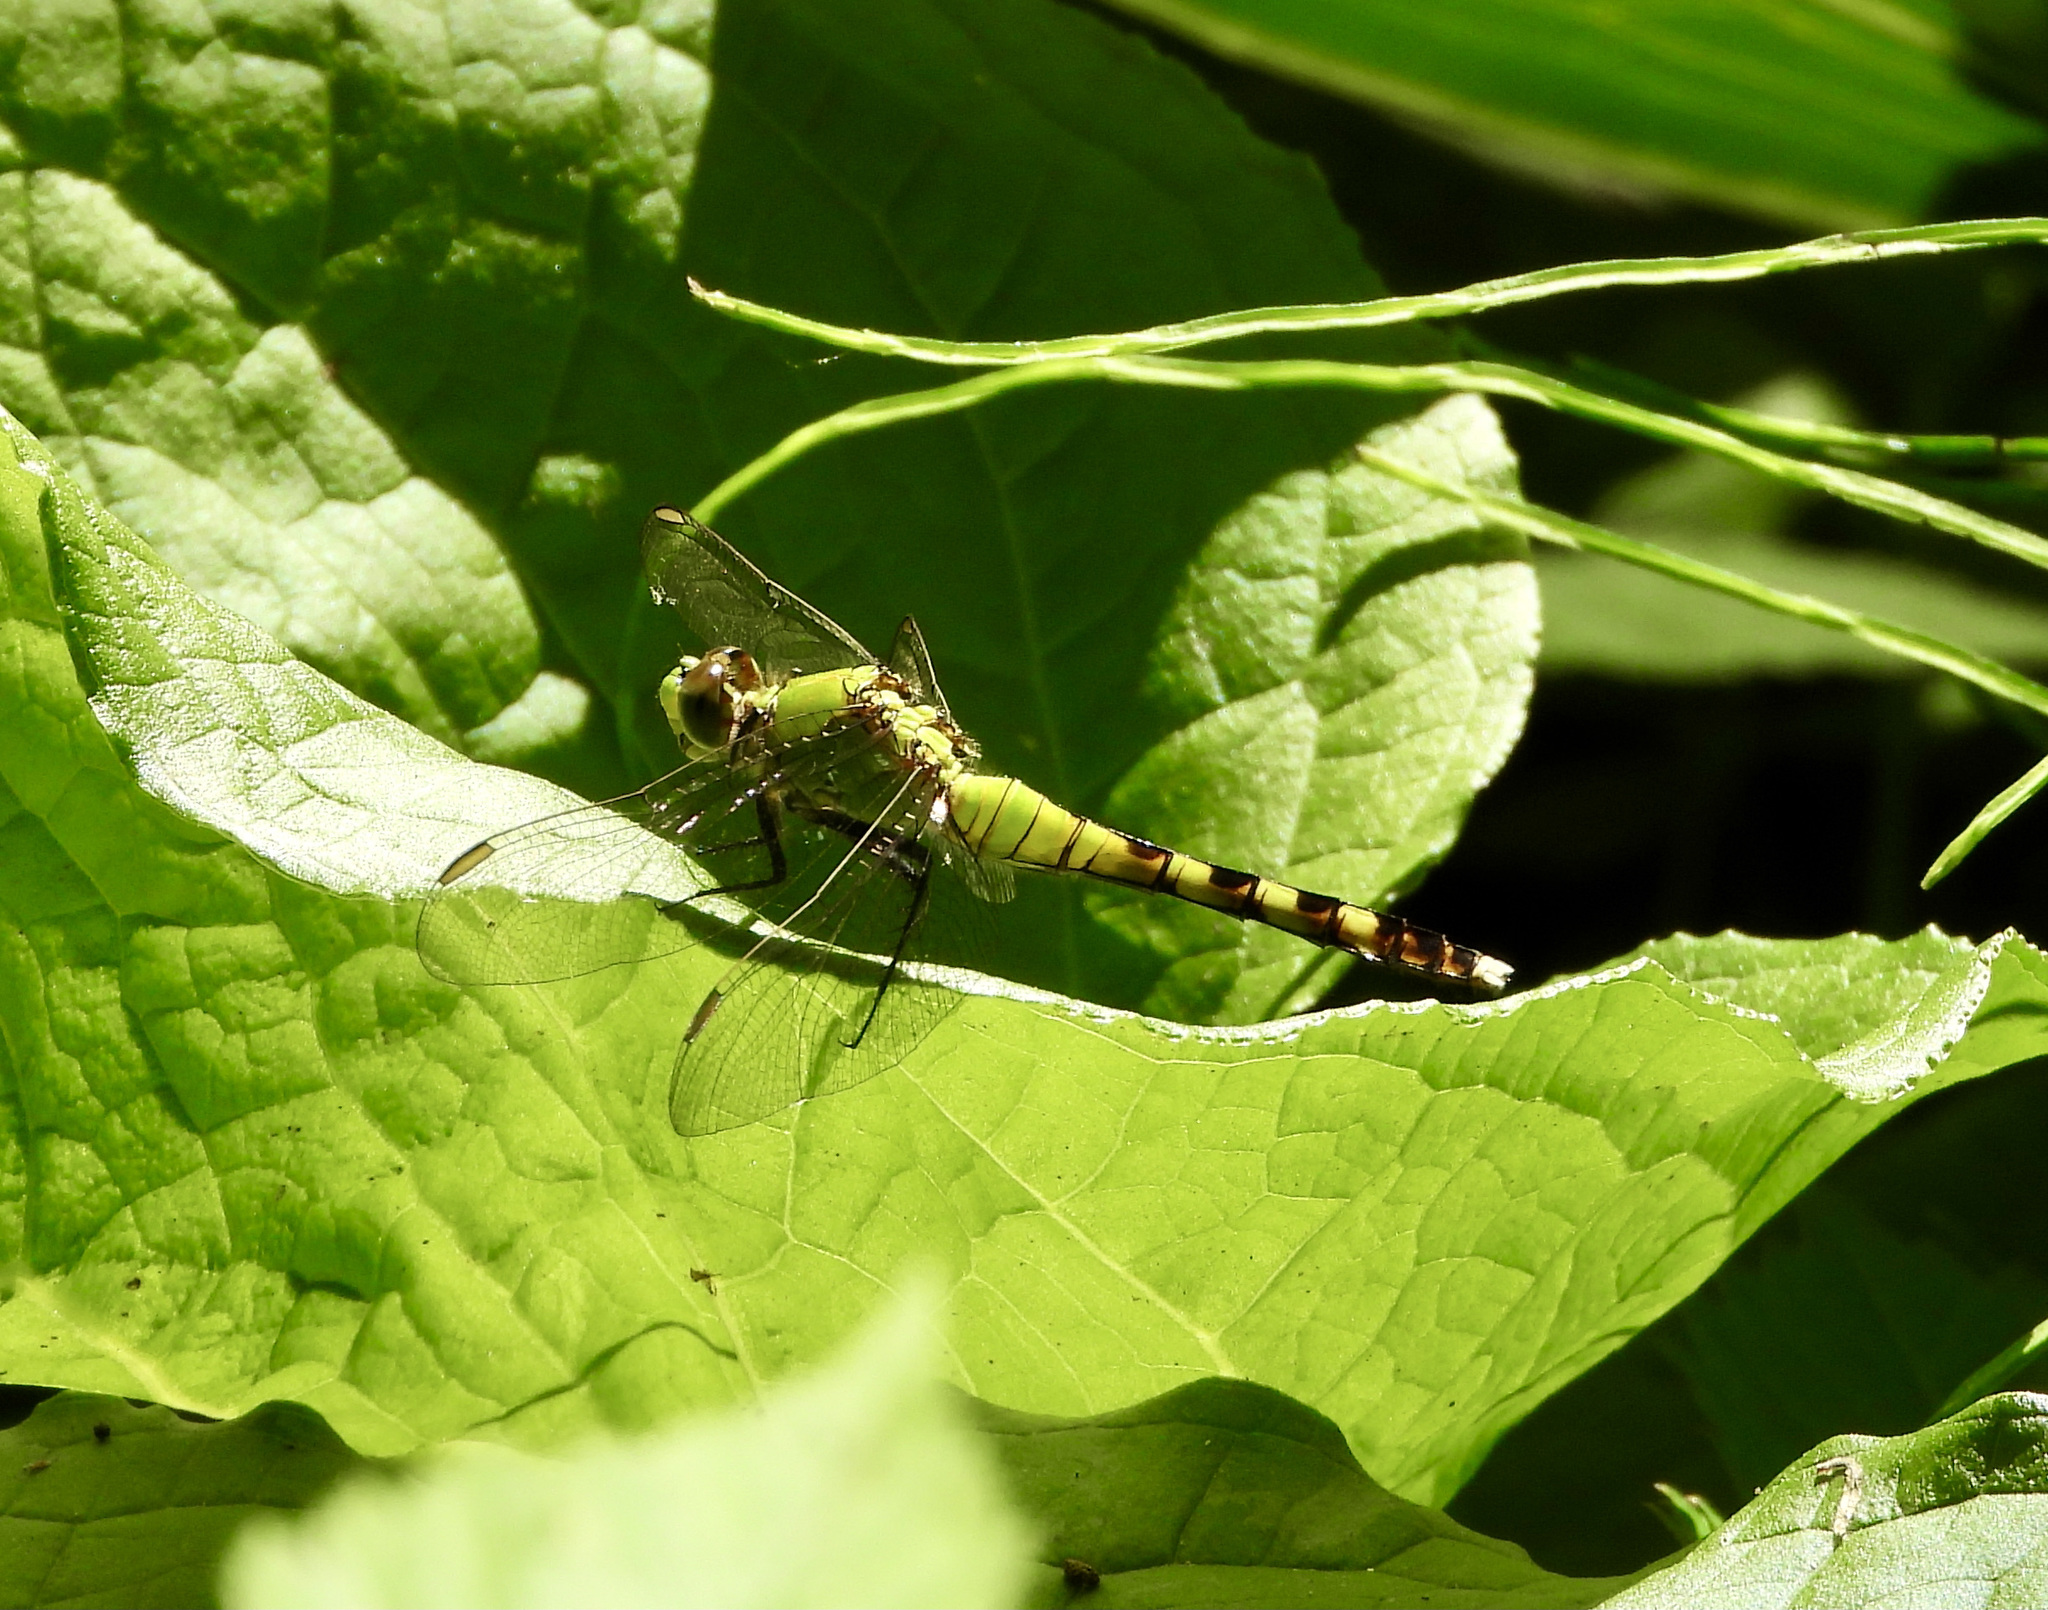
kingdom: Animalia
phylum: Arthropoda
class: Insecta
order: Odonata
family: Libellulidae
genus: Erythemis
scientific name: Erythemis simplicicollis
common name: Eastern pondhawk
